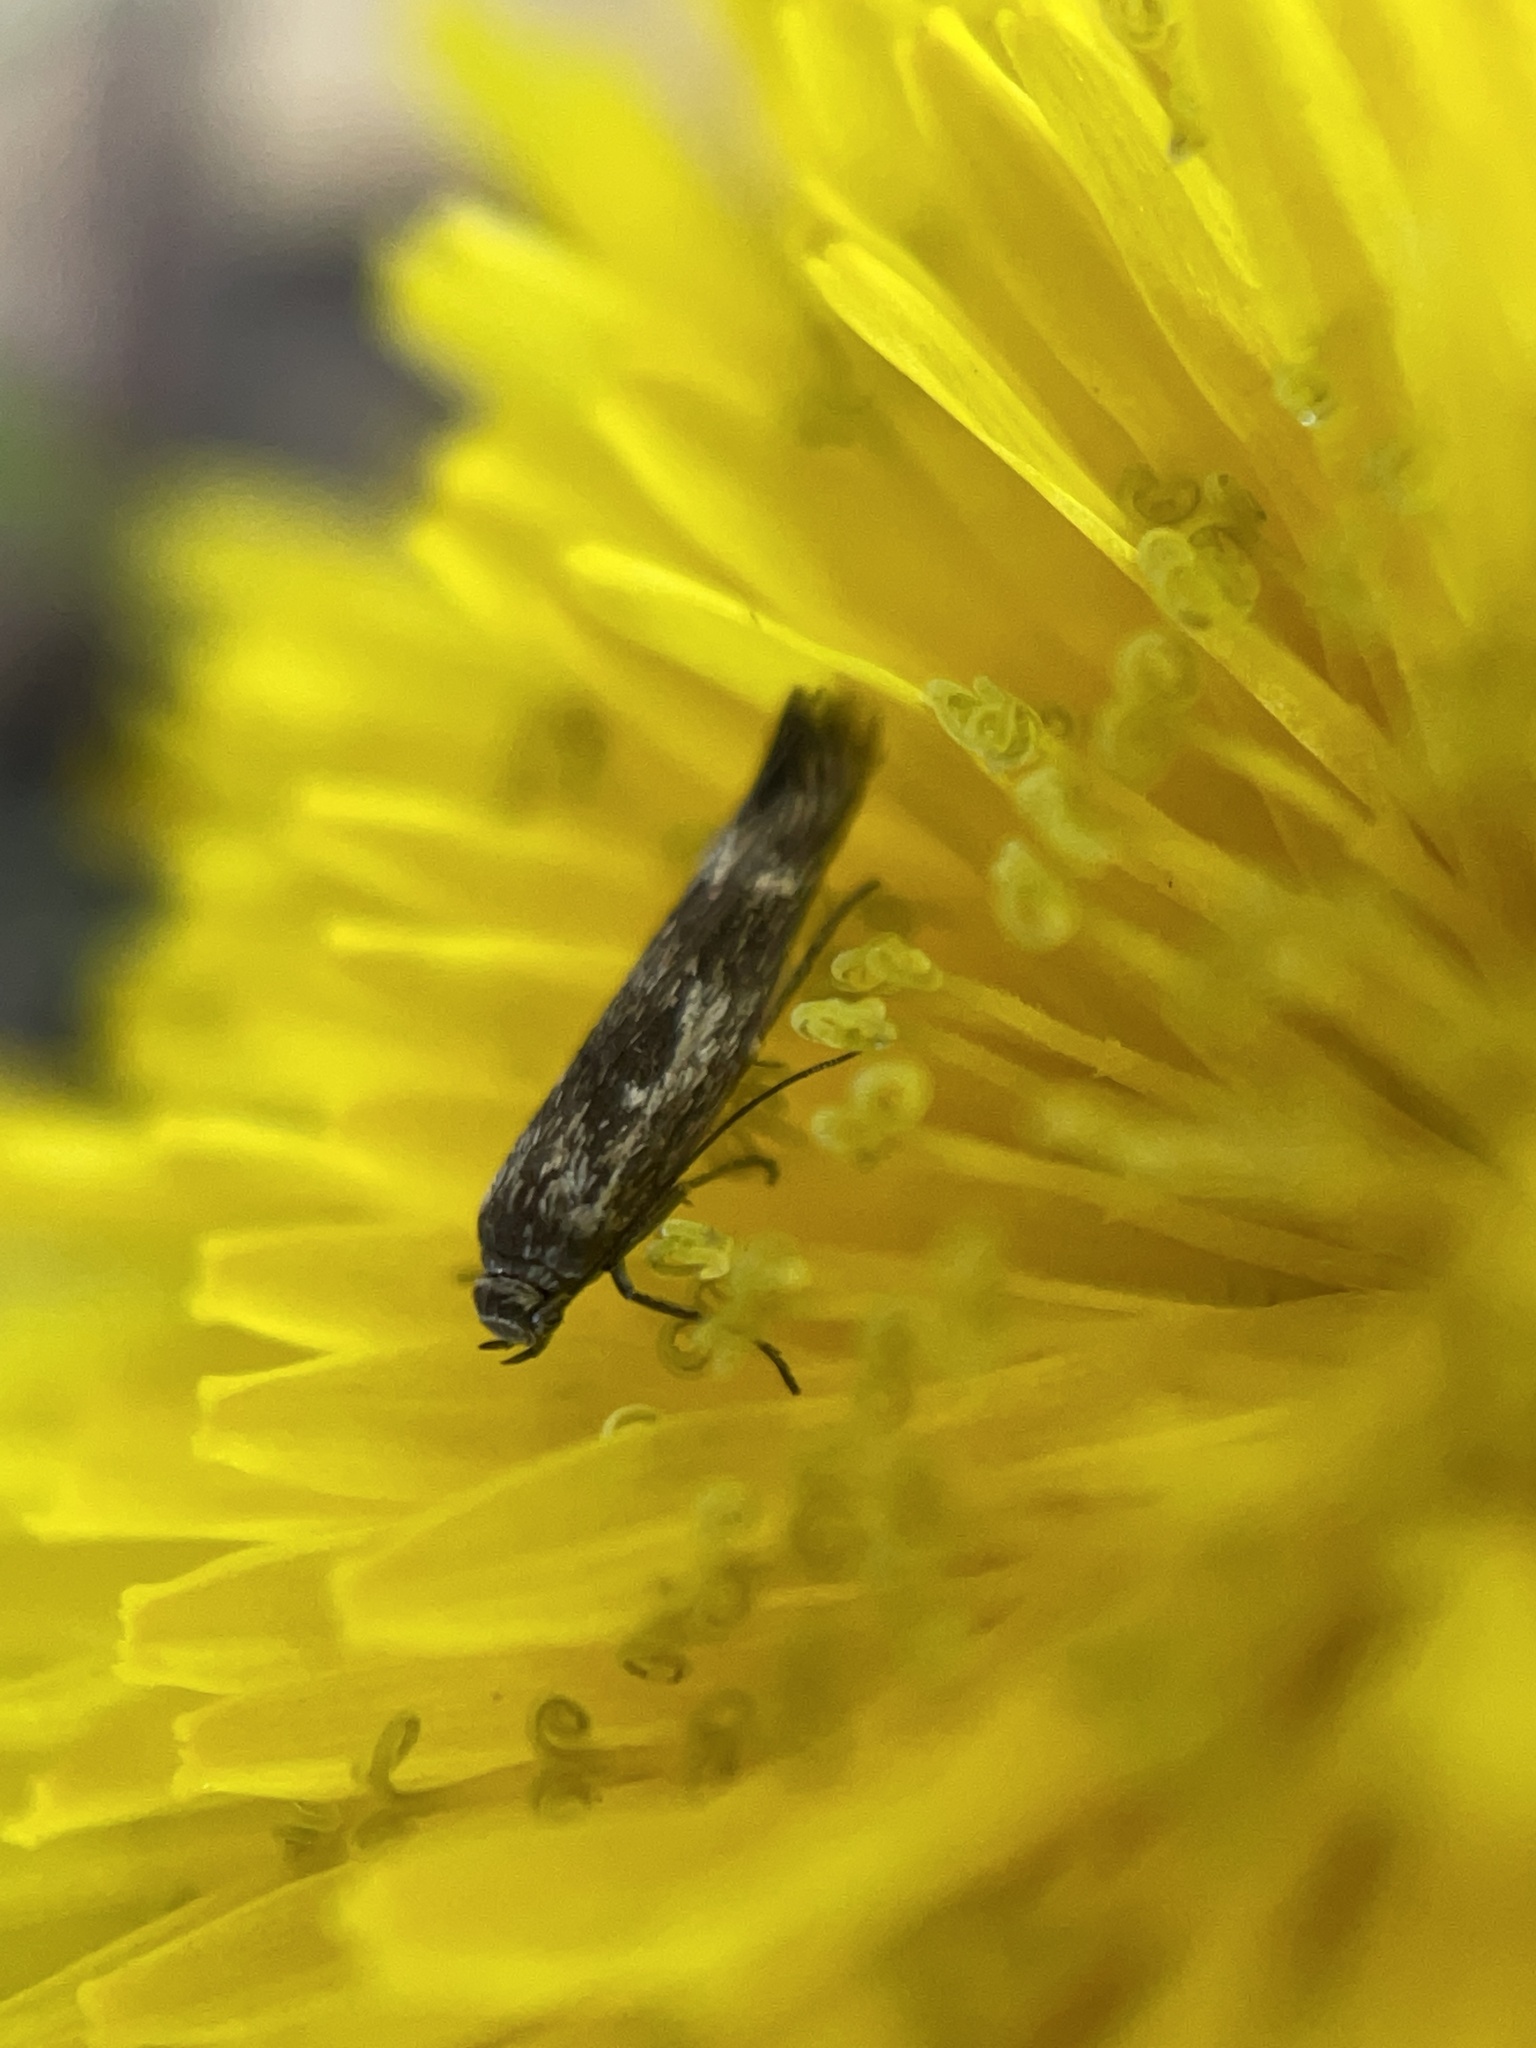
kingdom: Animalia
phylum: Arthropoda
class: Insecta
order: Lepidoptera
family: Scythrididae
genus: Scythris
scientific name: Scythris trivinctella
